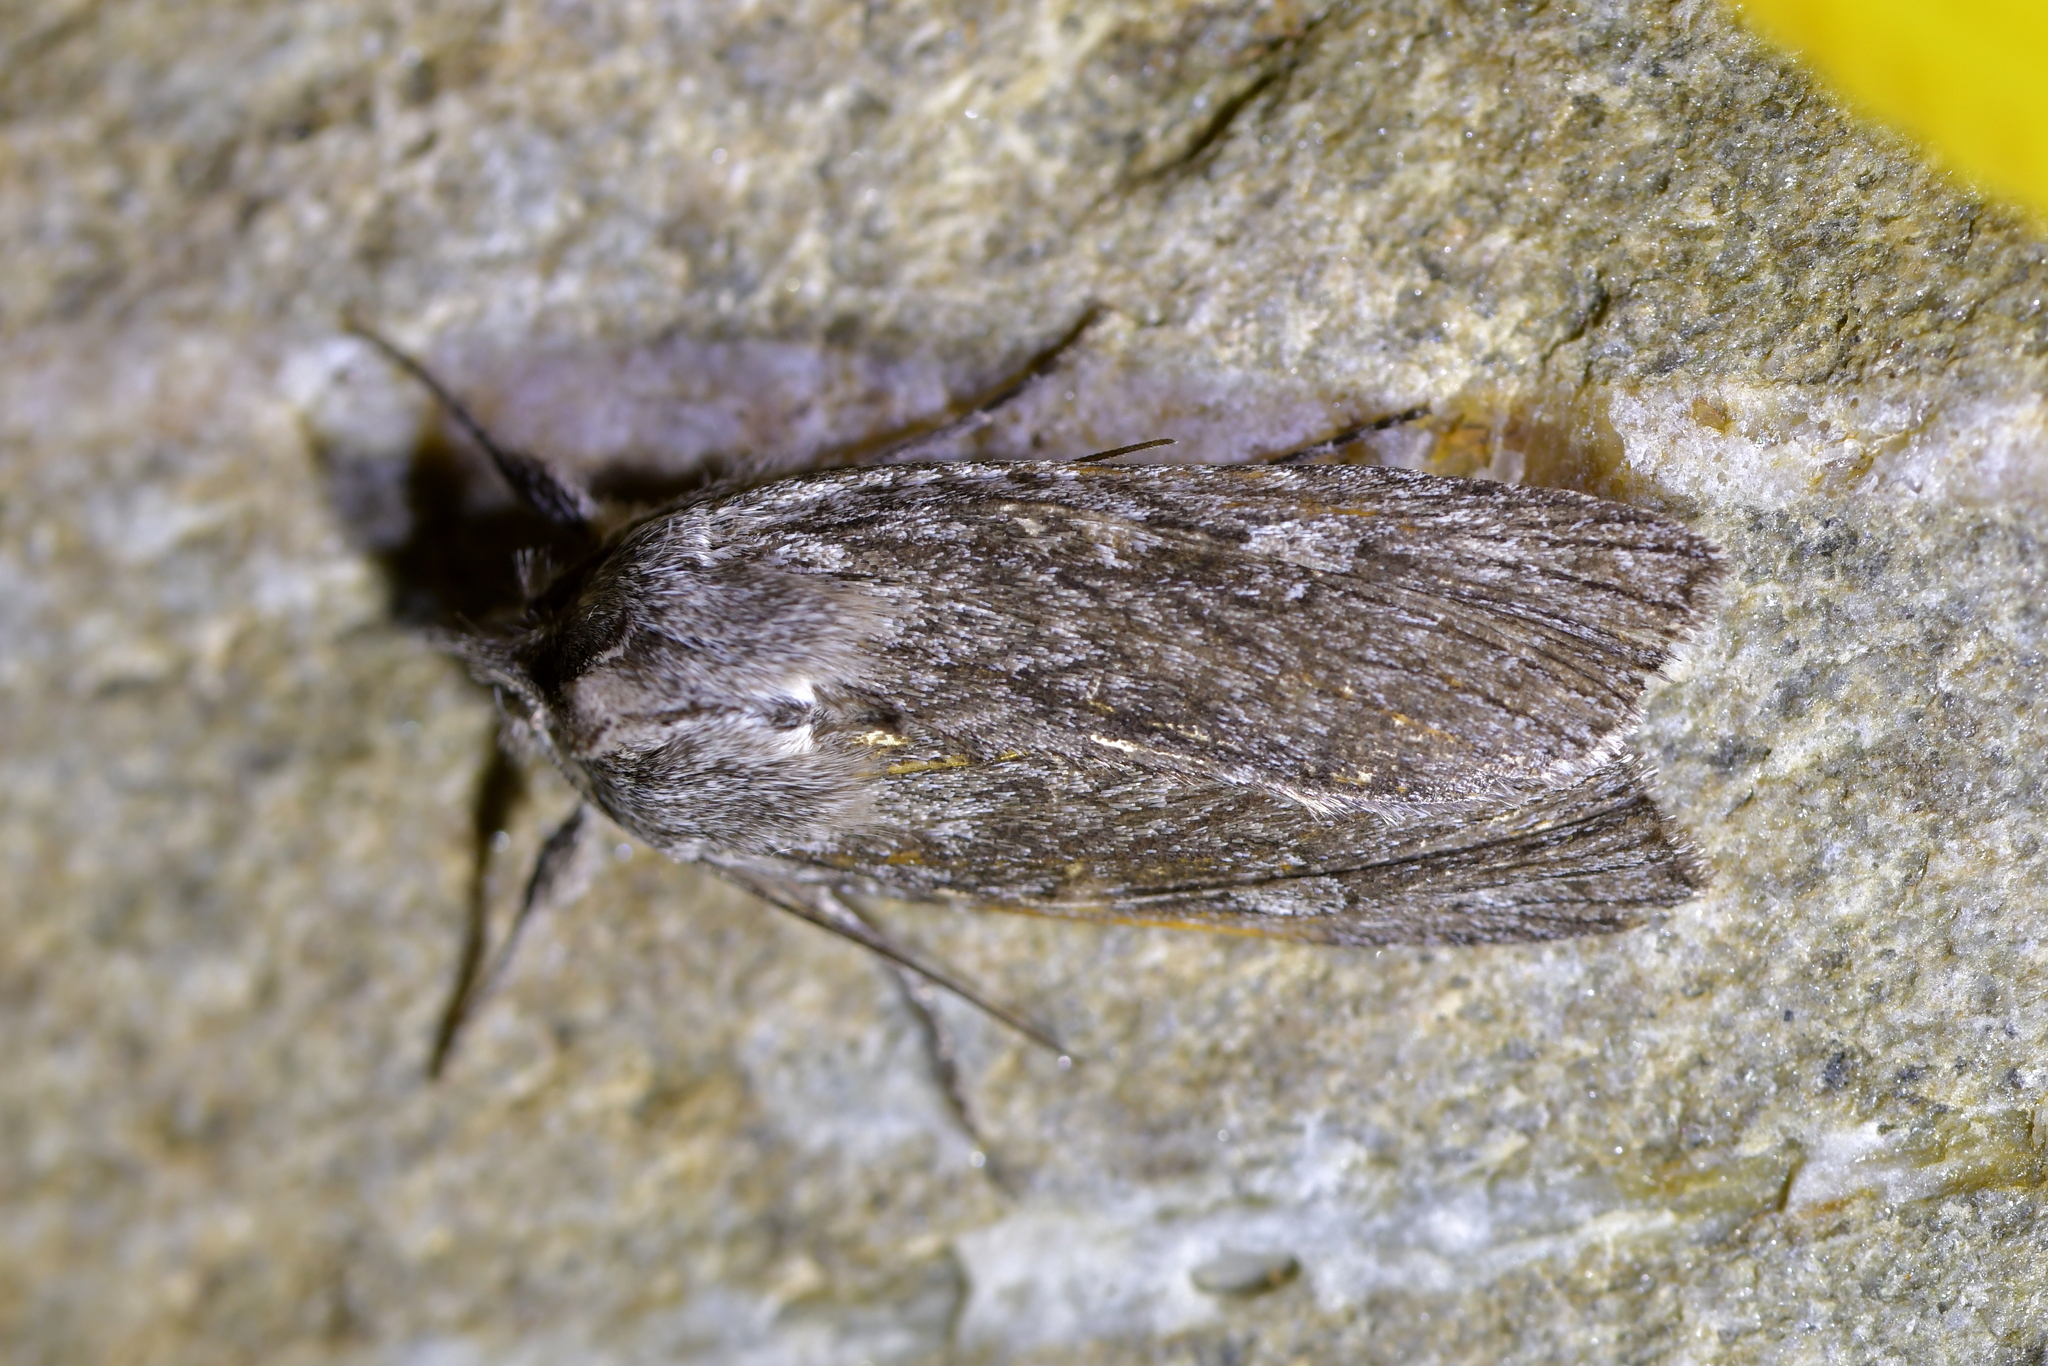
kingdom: Animalia
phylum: Arthropoda
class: Insecta
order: Lepidoptera
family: Noctuidae
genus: Physetica
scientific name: Physetica phricias
